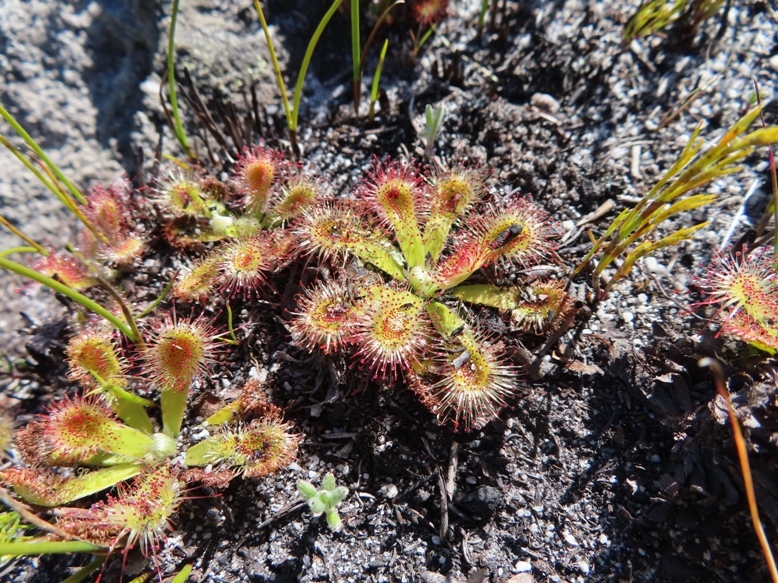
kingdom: Plantae
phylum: Tracheophyta
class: Magnoliopsida
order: Caryophyllales
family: Droseraceae
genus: Drosera
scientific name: Drosera aliciae
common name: Alice sundew
